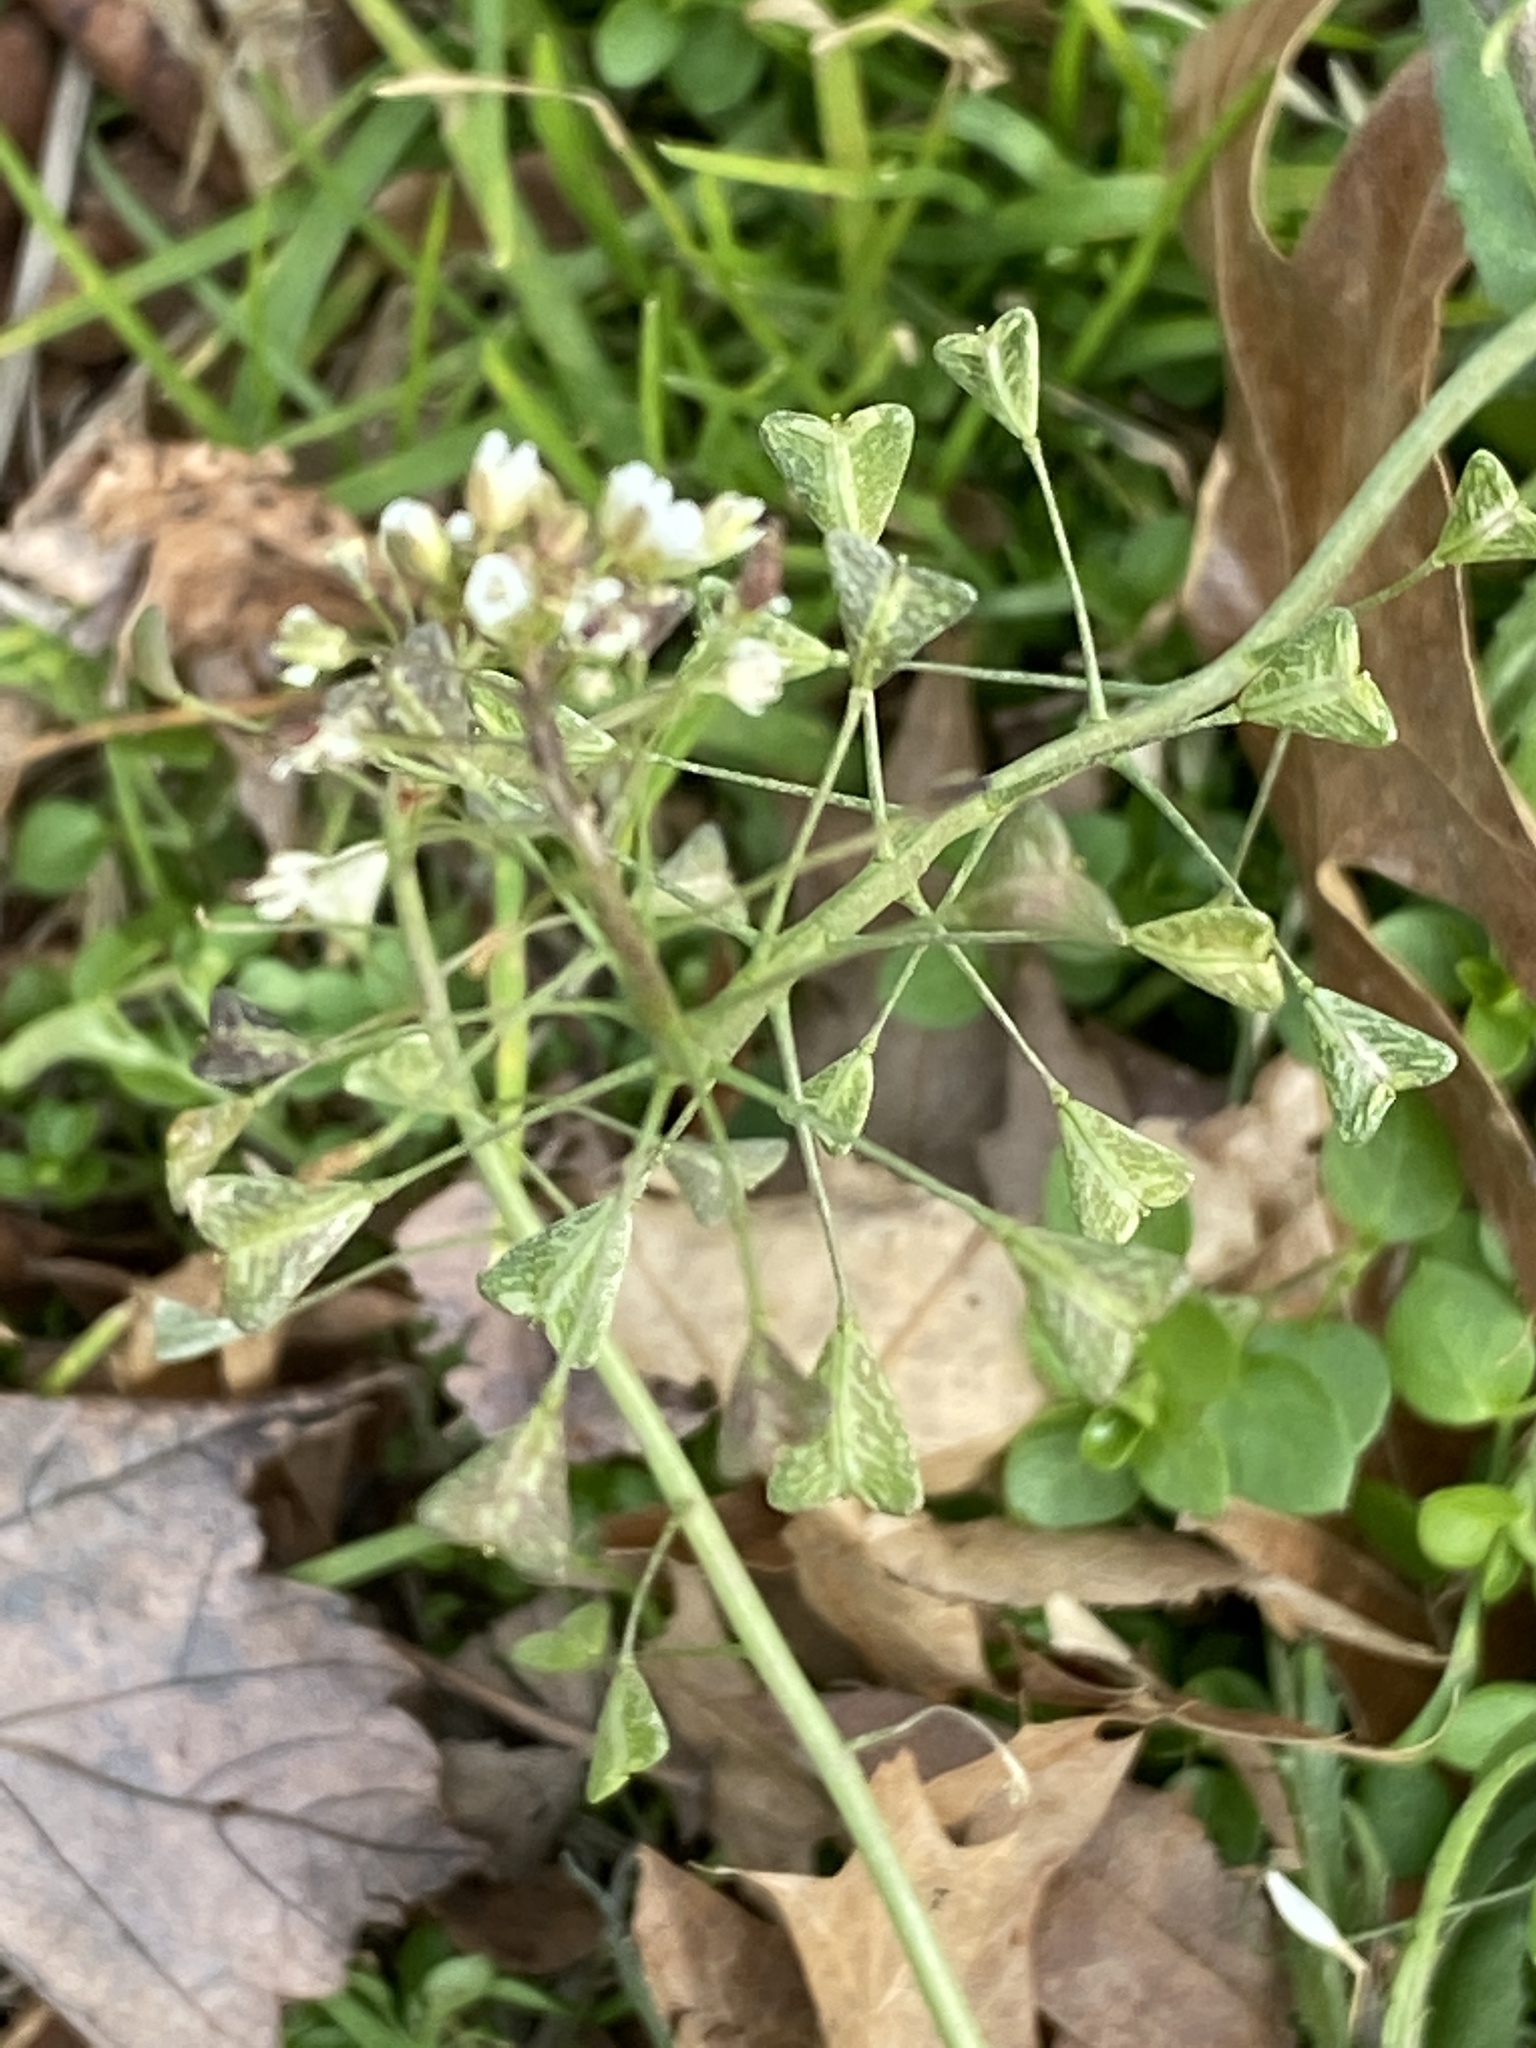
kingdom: Plantae
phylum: Tracheophyta
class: Magnoliopsida
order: Brassicales
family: Brassicaceae
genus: Capsella
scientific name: Capsella bursa-pastoris
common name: Shepherd's purse
